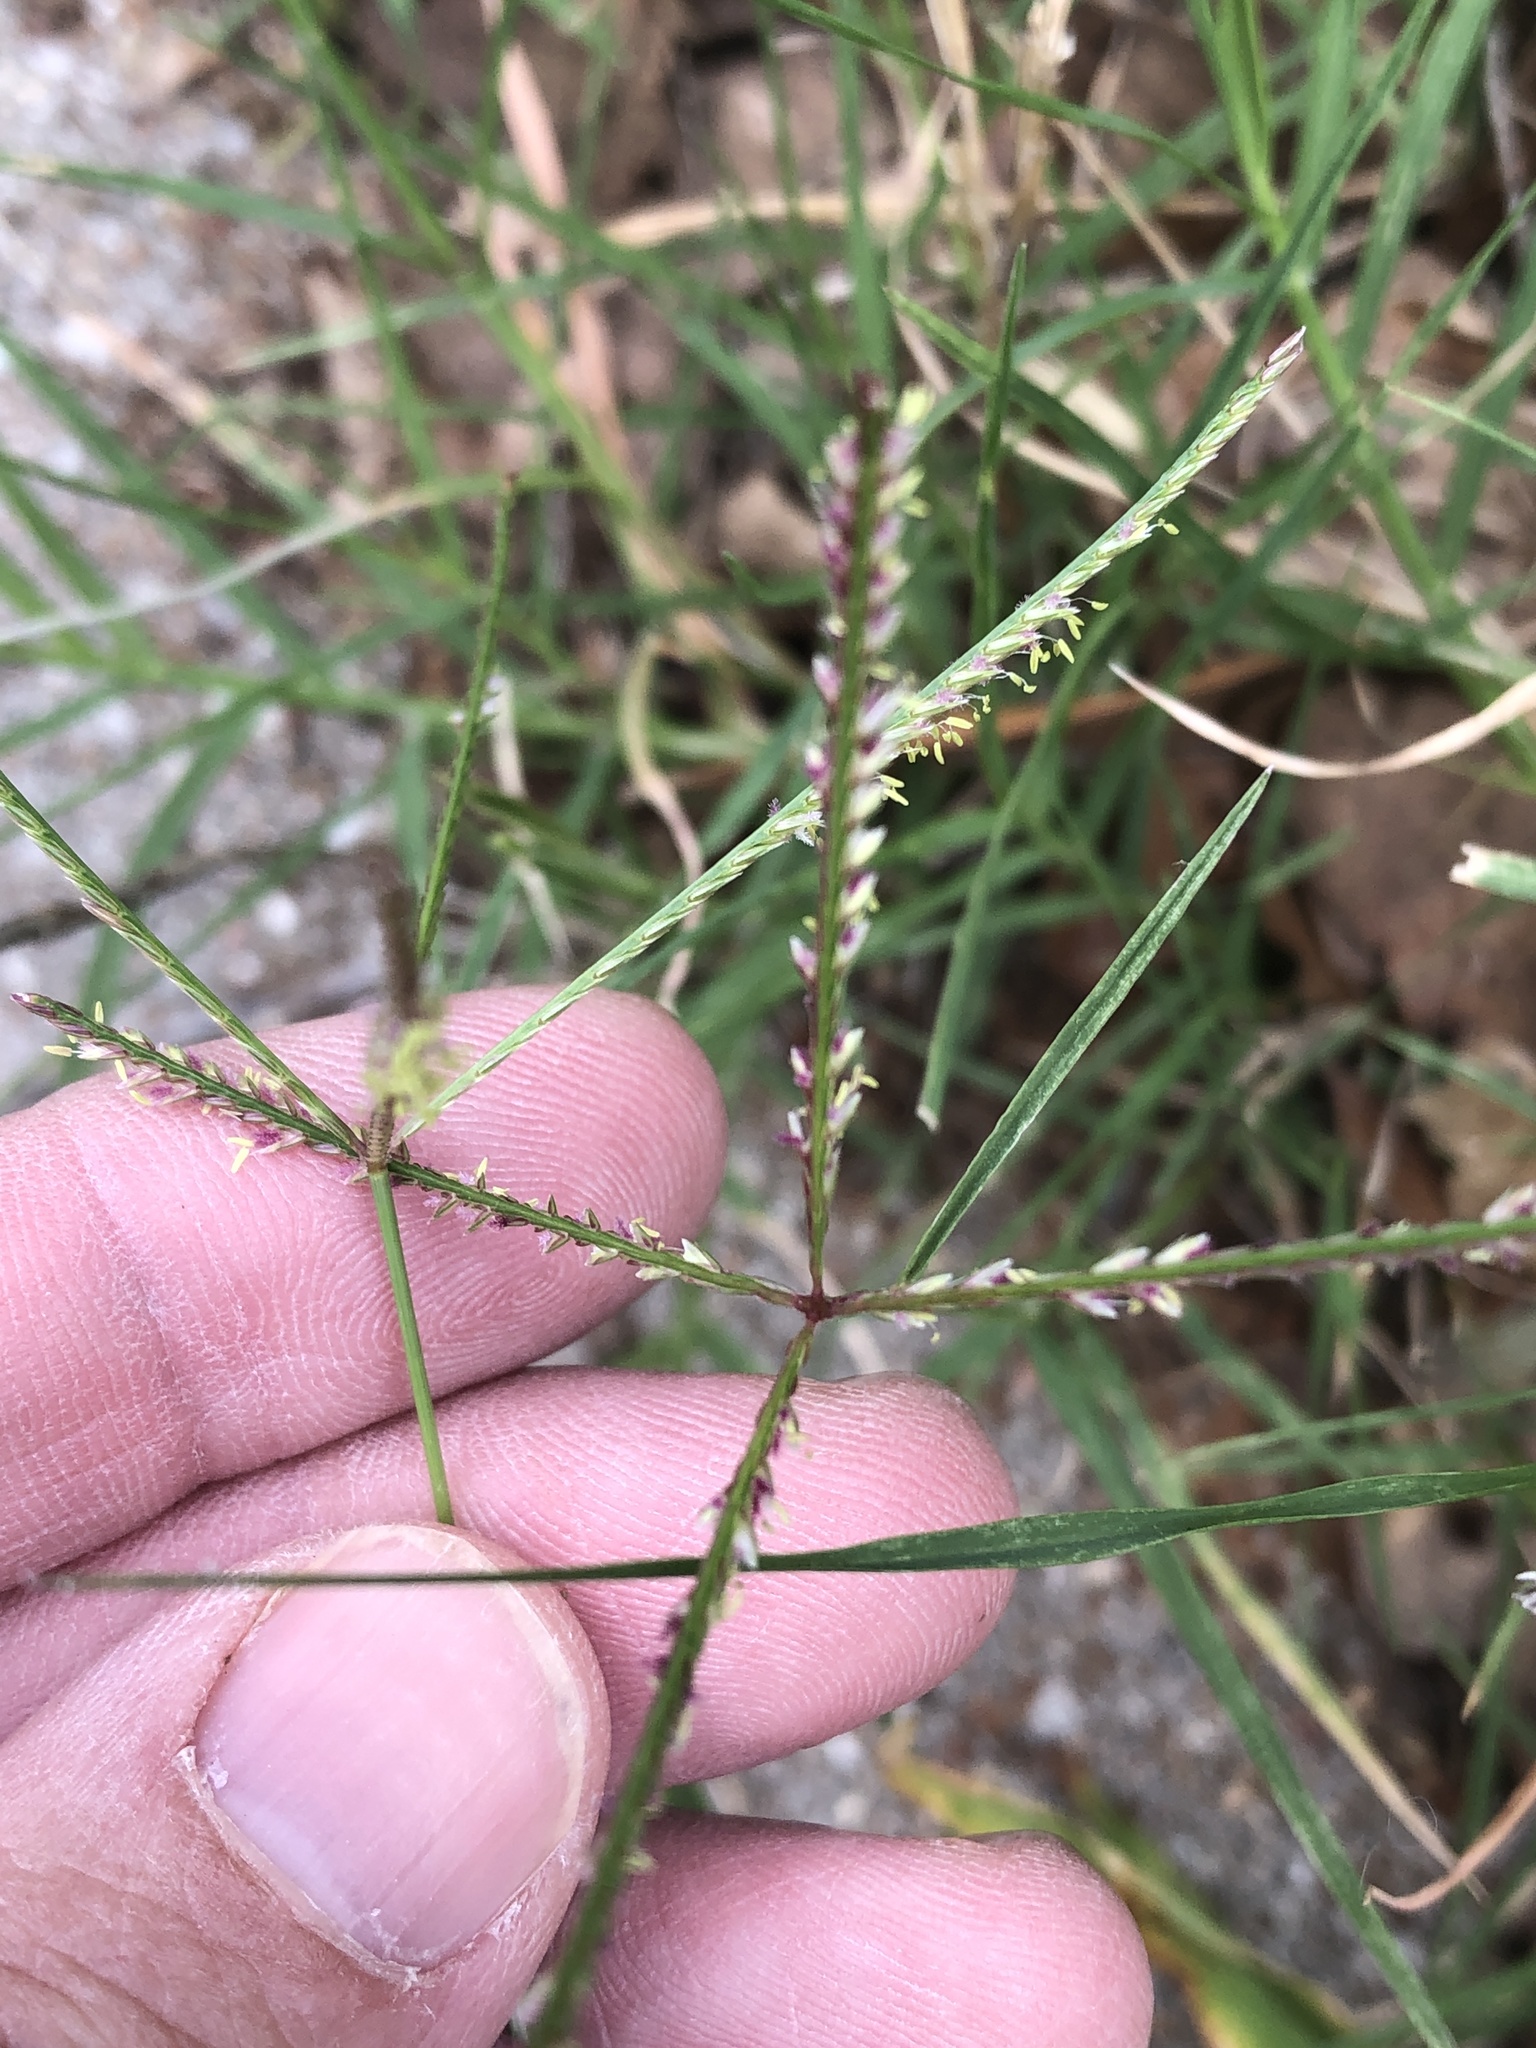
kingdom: Plantae
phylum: Tracheophyta
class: Liliopsida
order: Poales
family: Poaceae
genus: Cynodon
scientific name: Cynodon dactylon
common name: Bermuda grass
